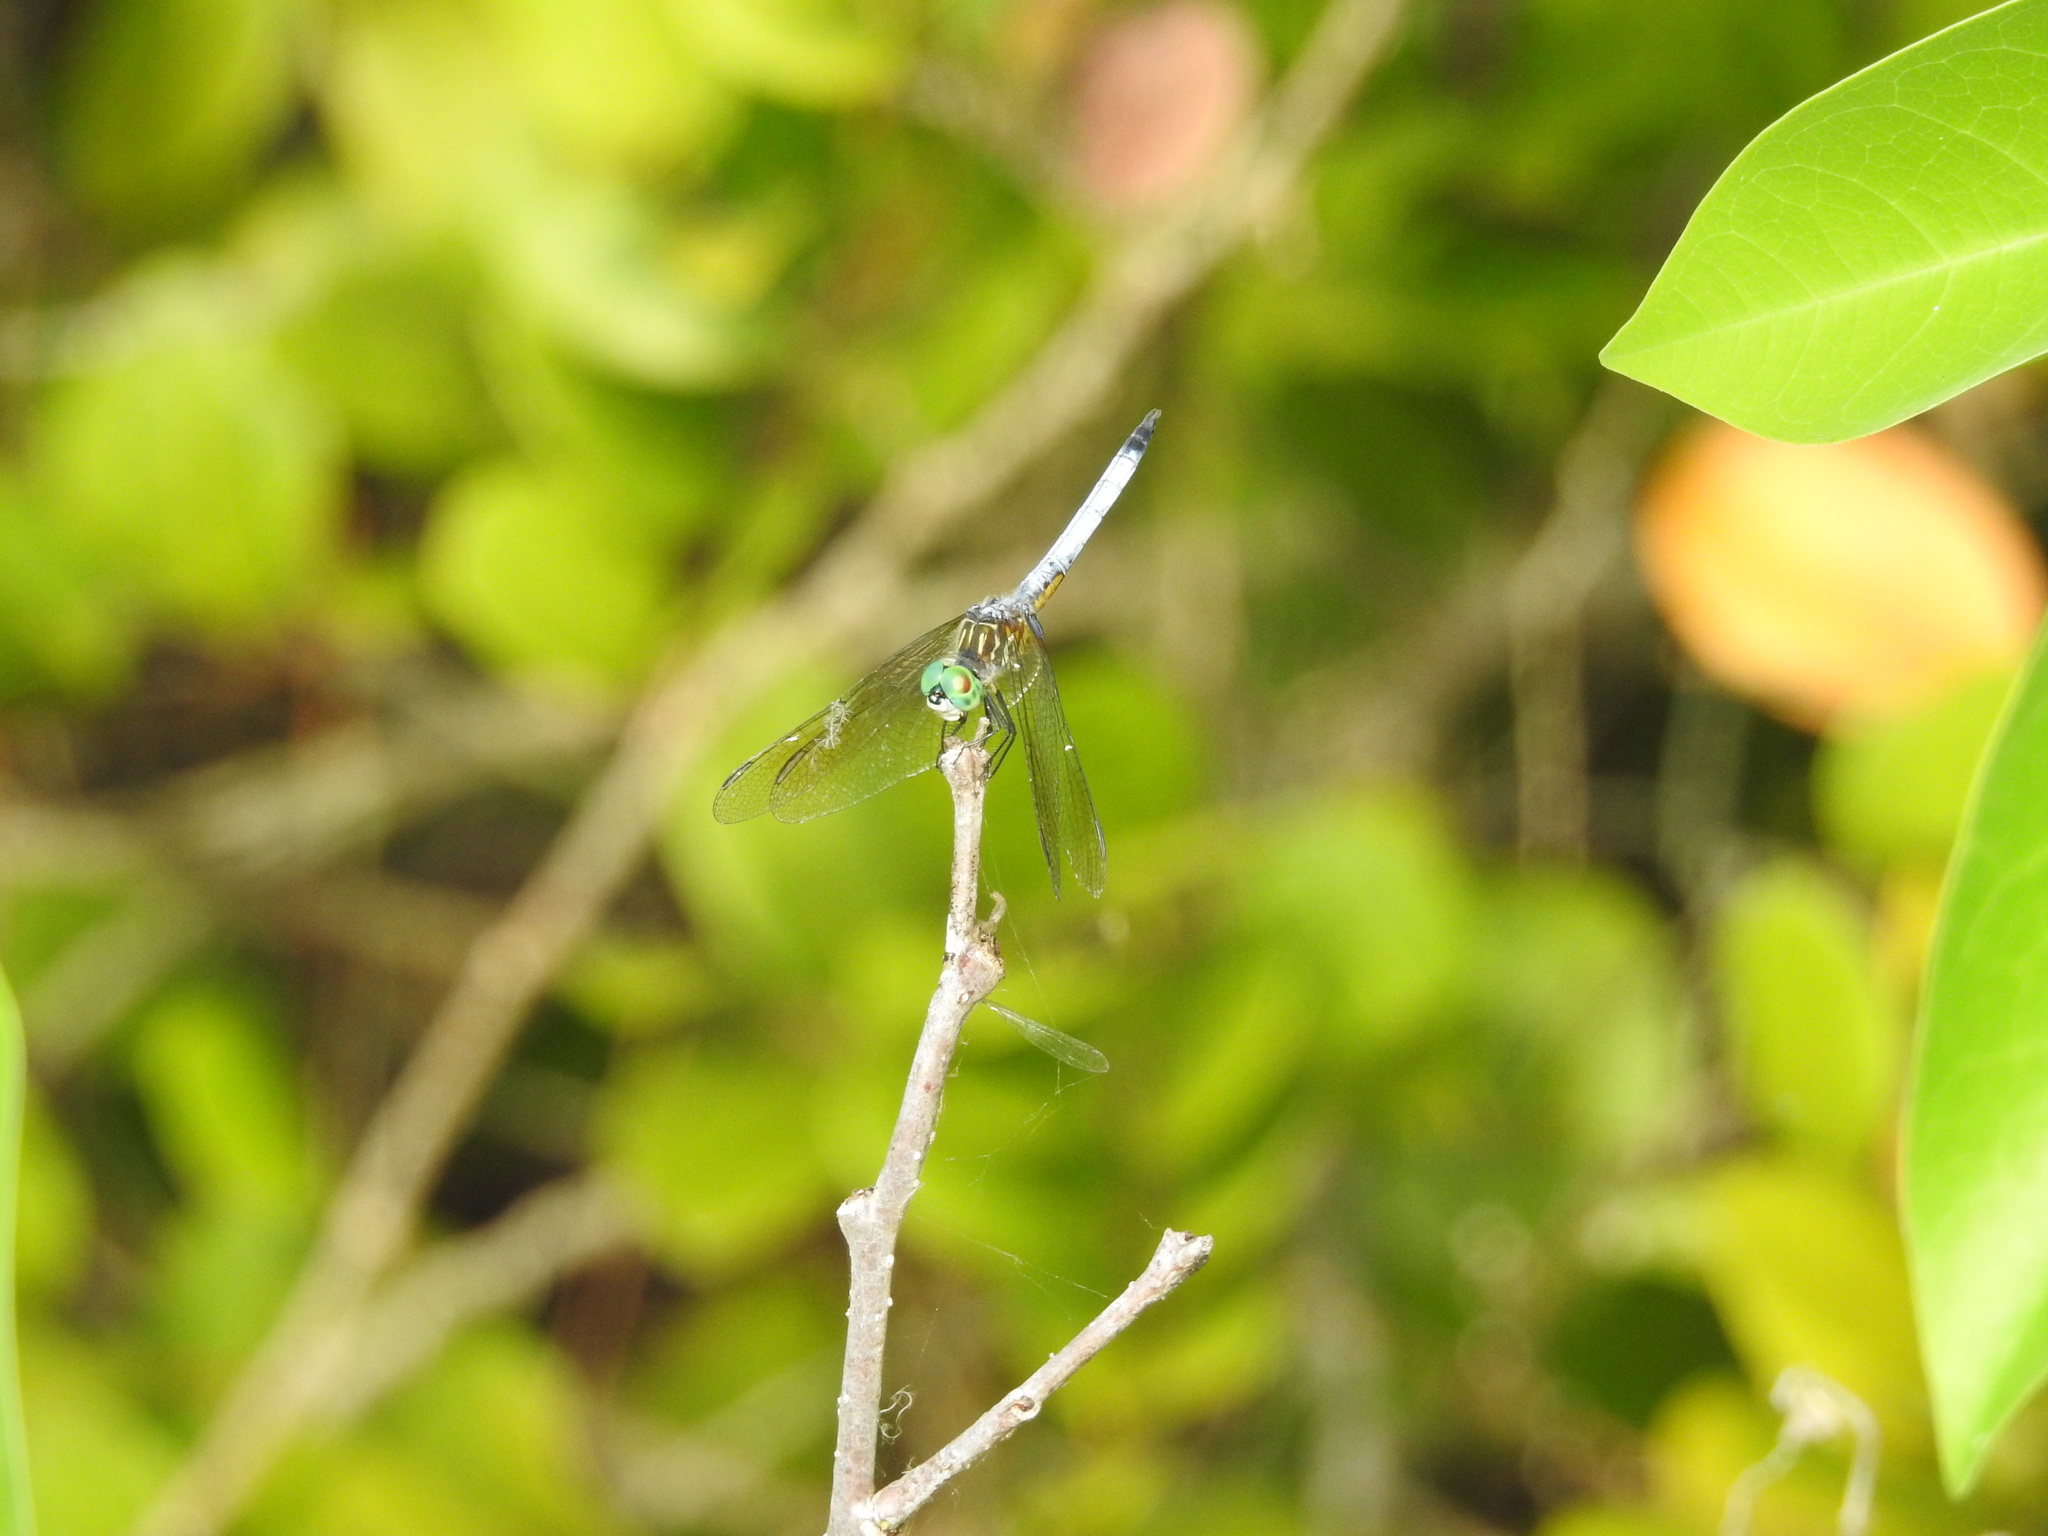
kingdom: Animalia
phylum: Arthropoda
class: Insecta
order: Odonata
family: Libellulidae
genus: Pachydiplax
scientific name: Pachydiplax longipennis
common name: Blue dasher
